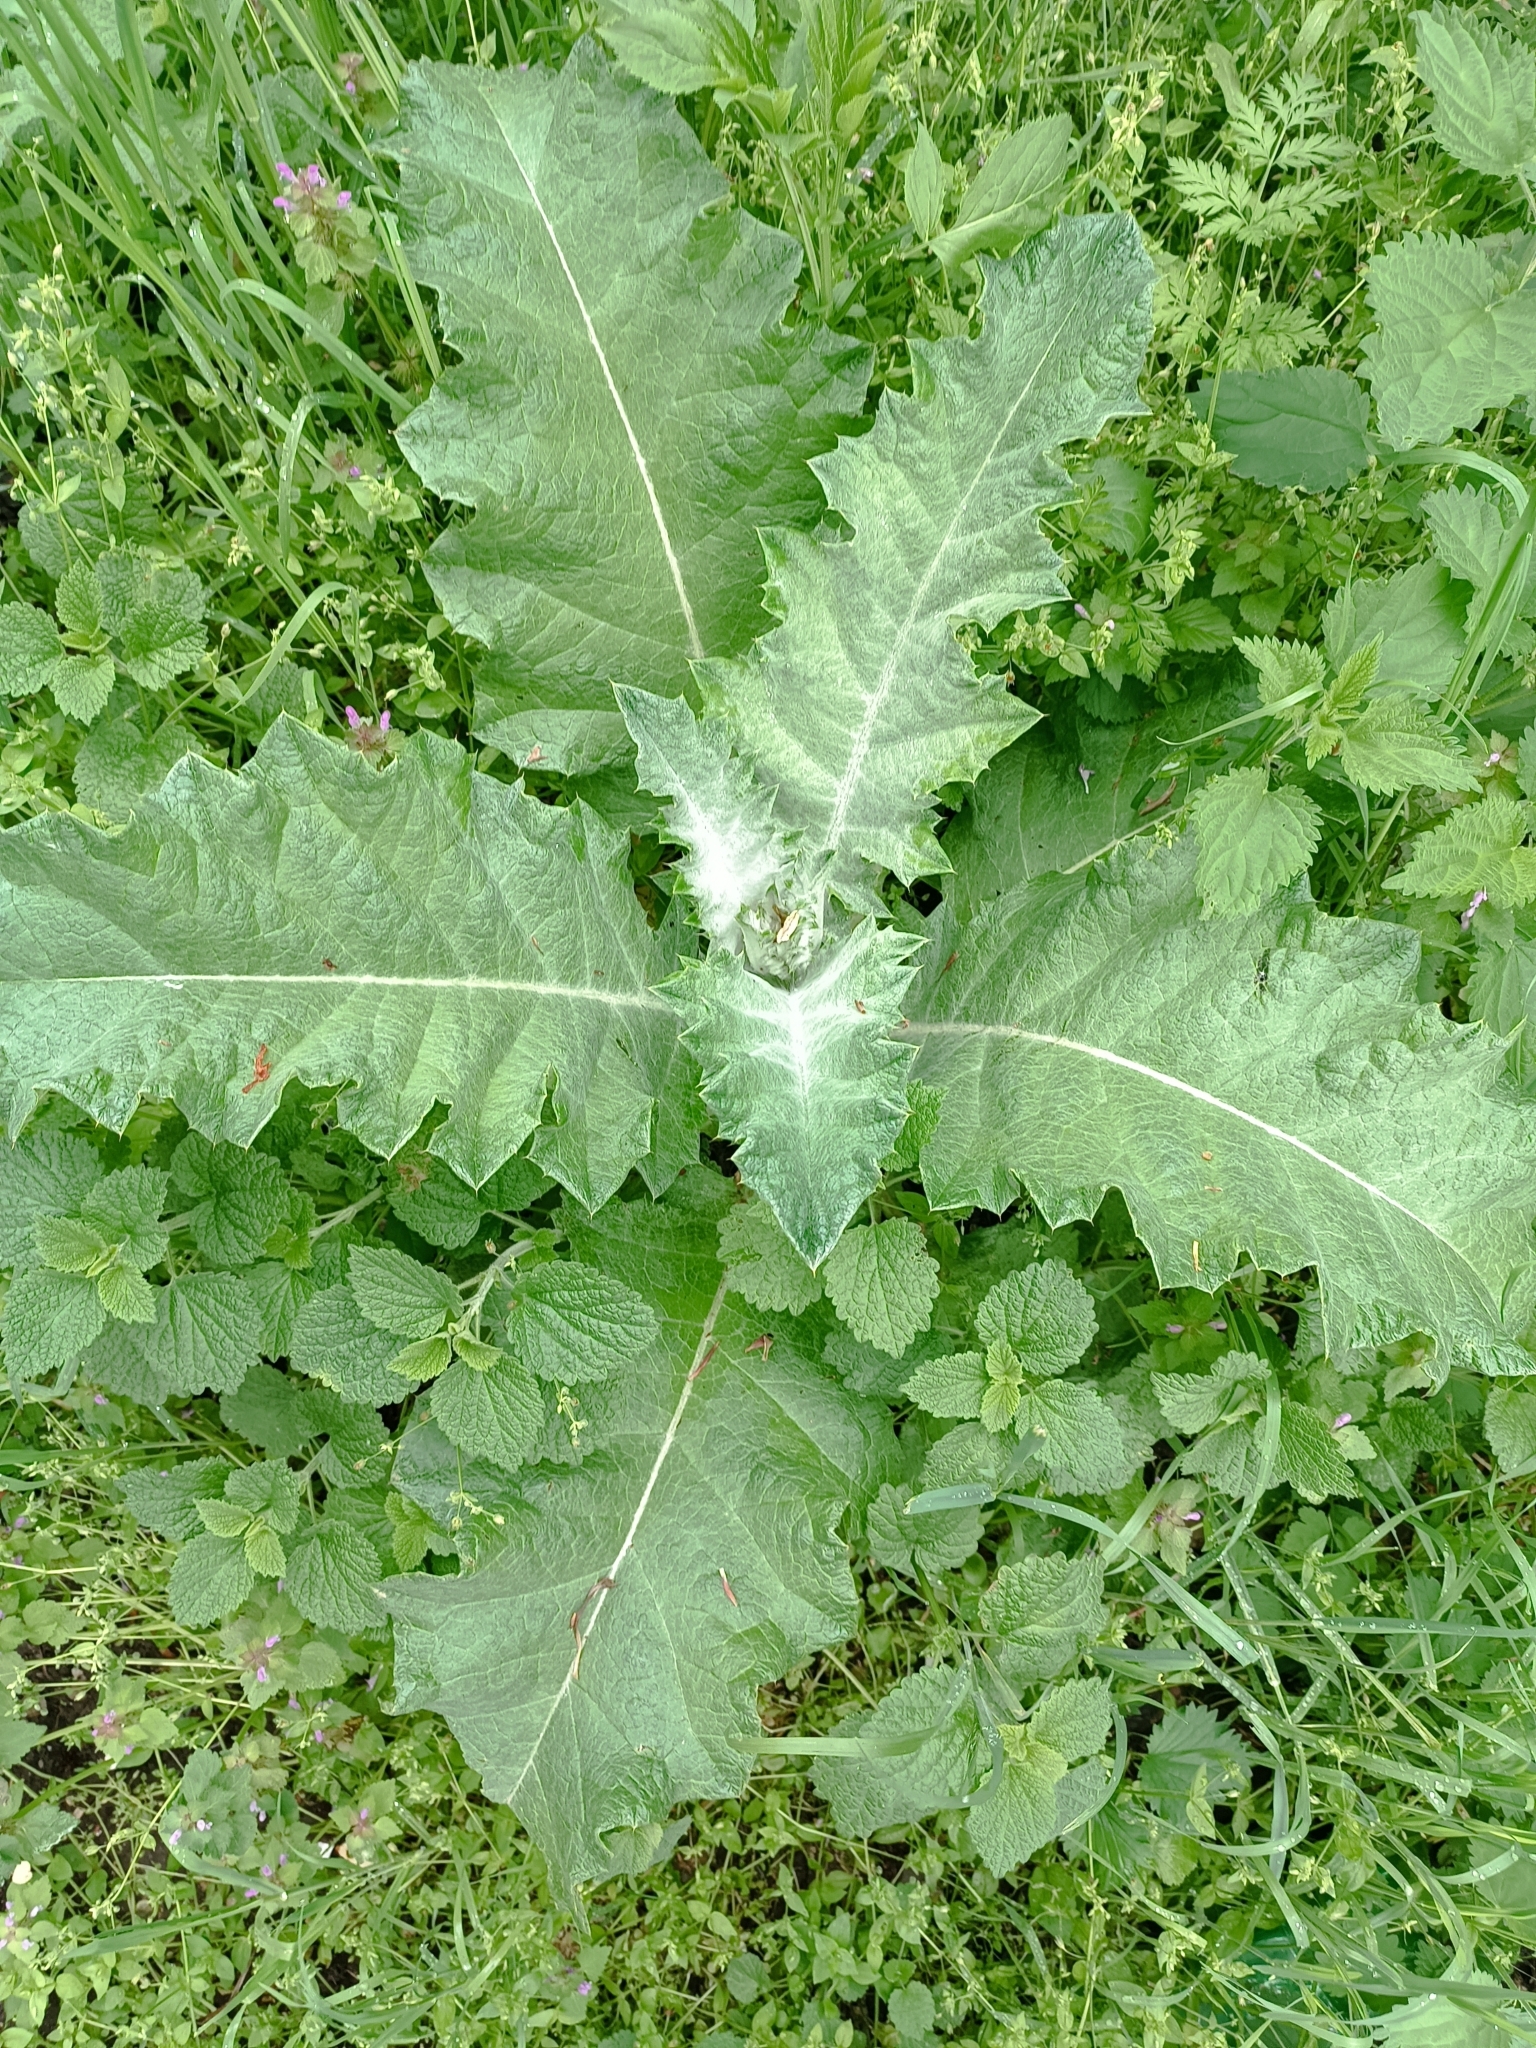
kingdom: Plantae
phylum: Tracheophyta
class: Magnoliopsida
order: Asterales
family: Asteraceae
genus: Onopordum
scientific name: Onopordum acanthium
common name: Scotch thistle
